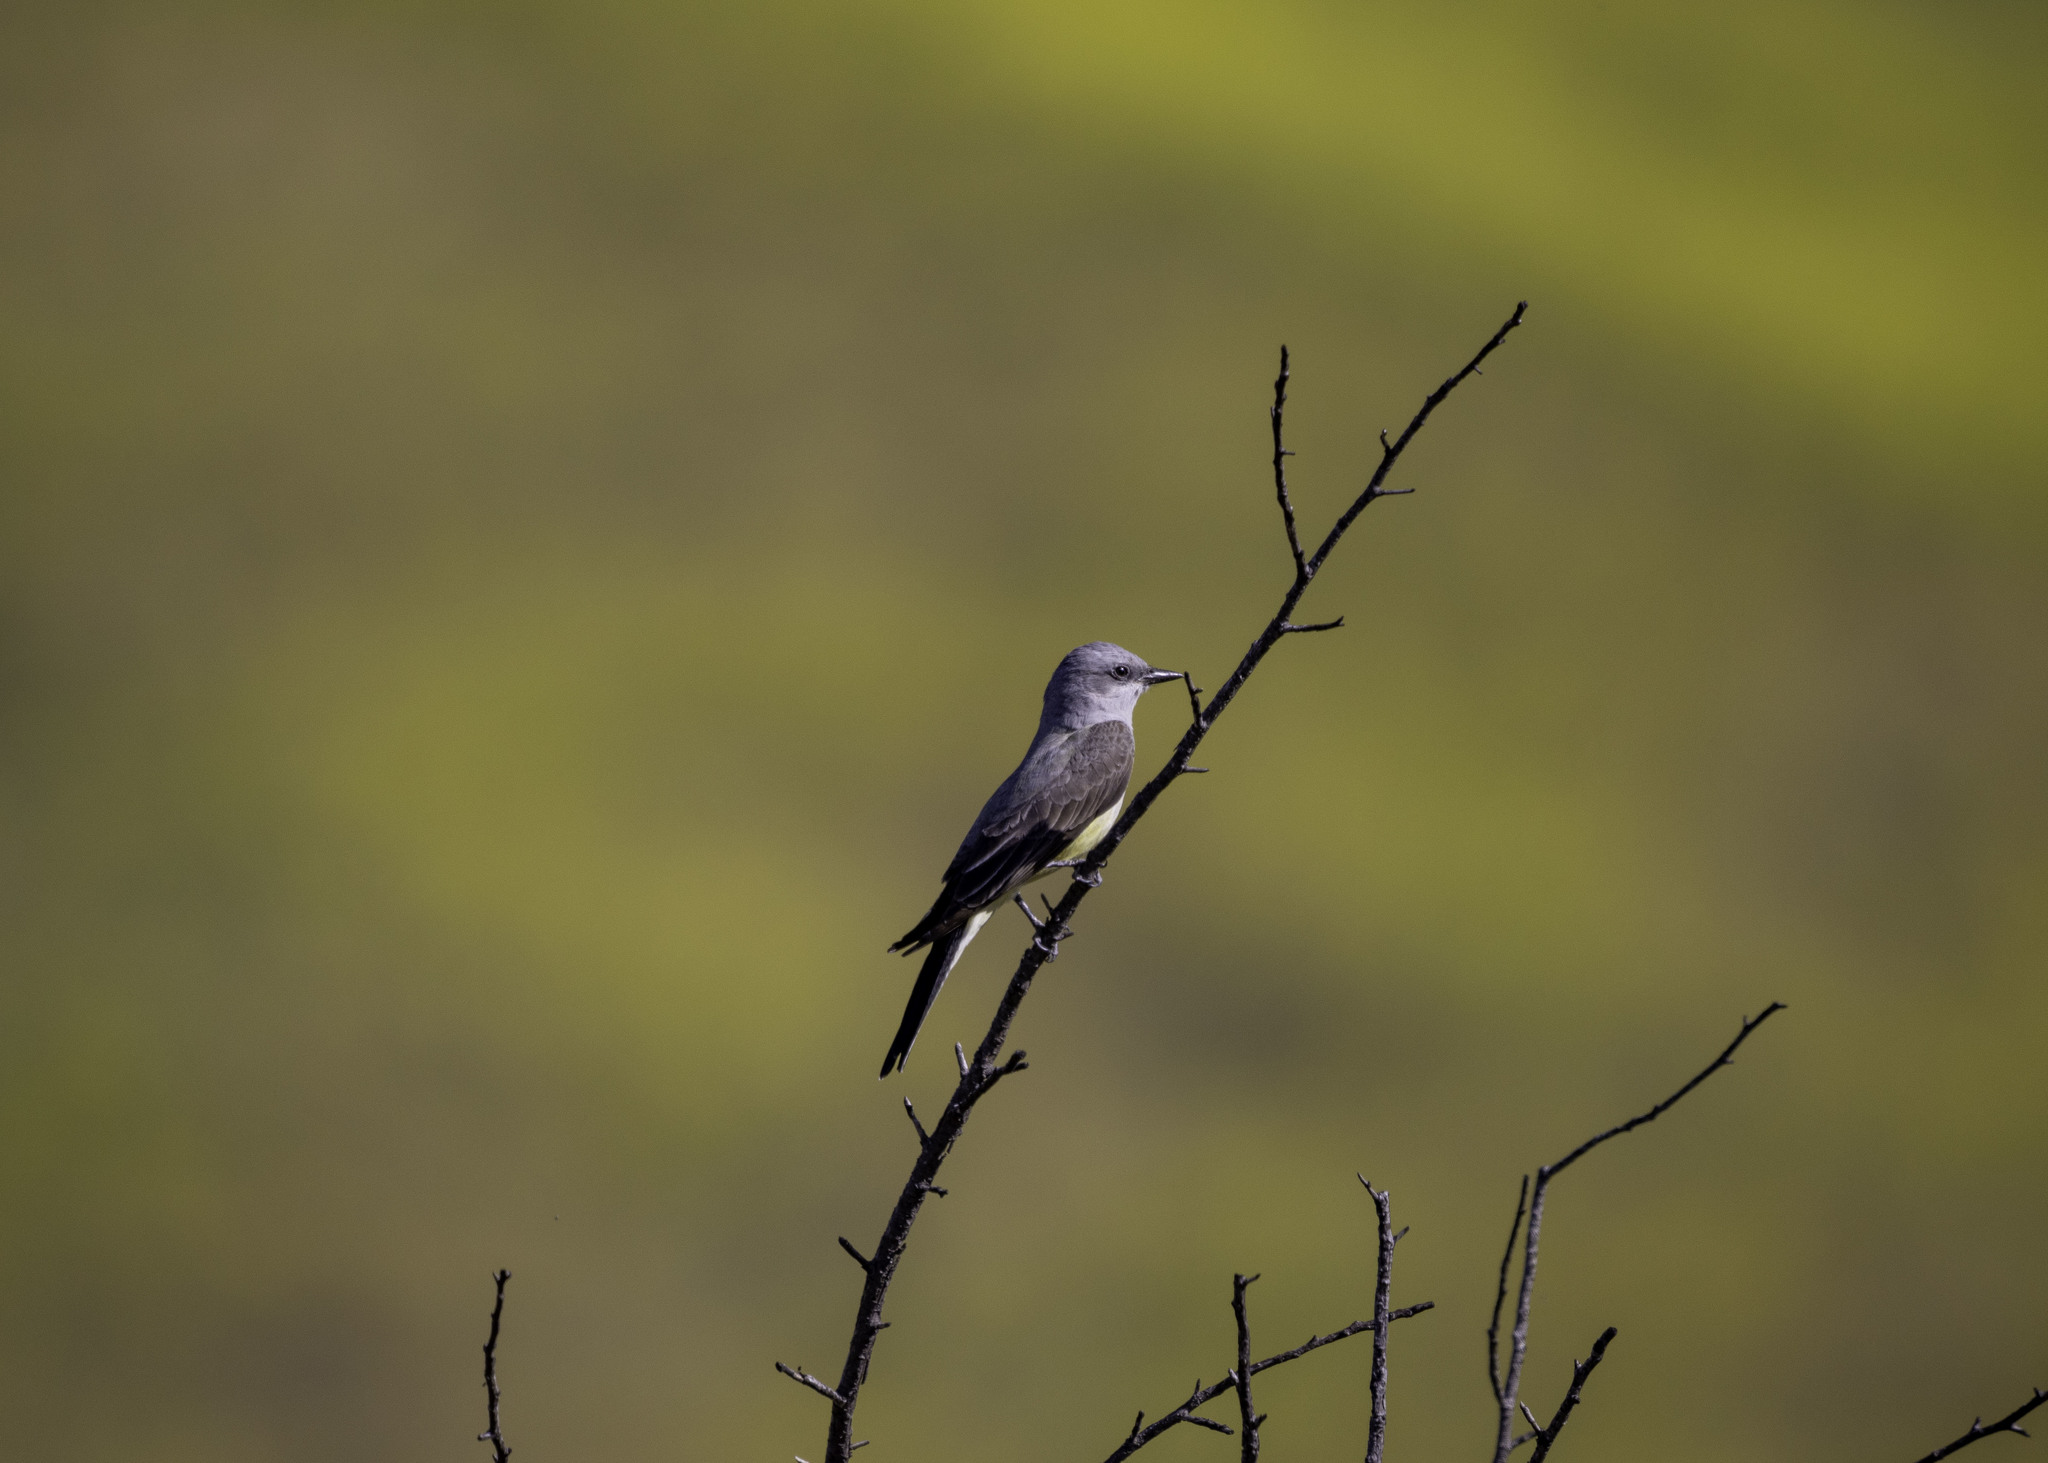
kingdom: Animalia
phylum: Chordata
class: Aves
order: Passeriformes
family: Tyrannidae
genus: Tyrannus
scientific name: Tyrannus verticalis
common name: Western kingbird
